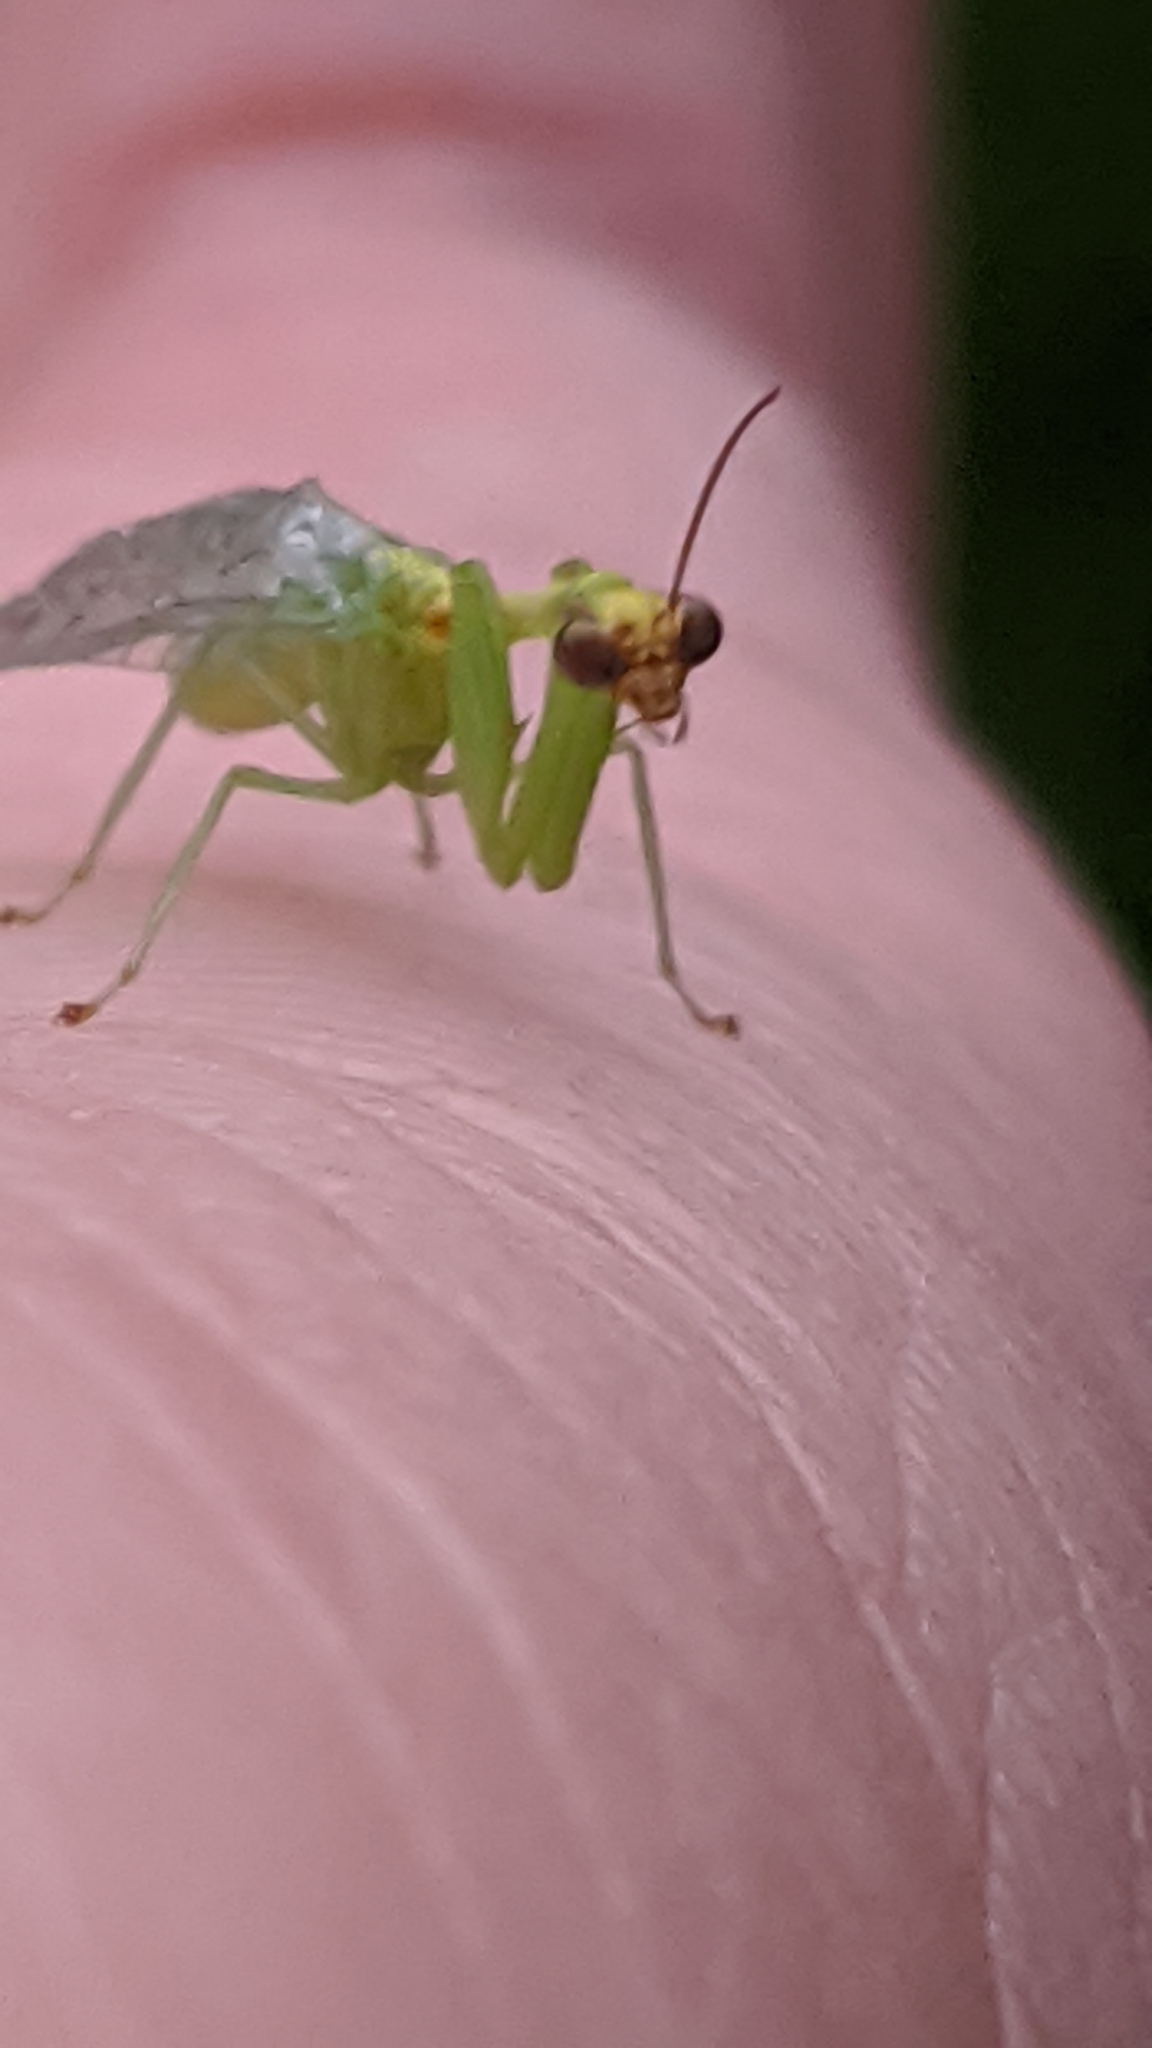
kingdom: Animalia
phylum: Arthropoda
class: Insecta
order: Neuroptera
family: Mantispidae
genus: Zeugomantispa
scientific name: Zeugomantispa minuta
